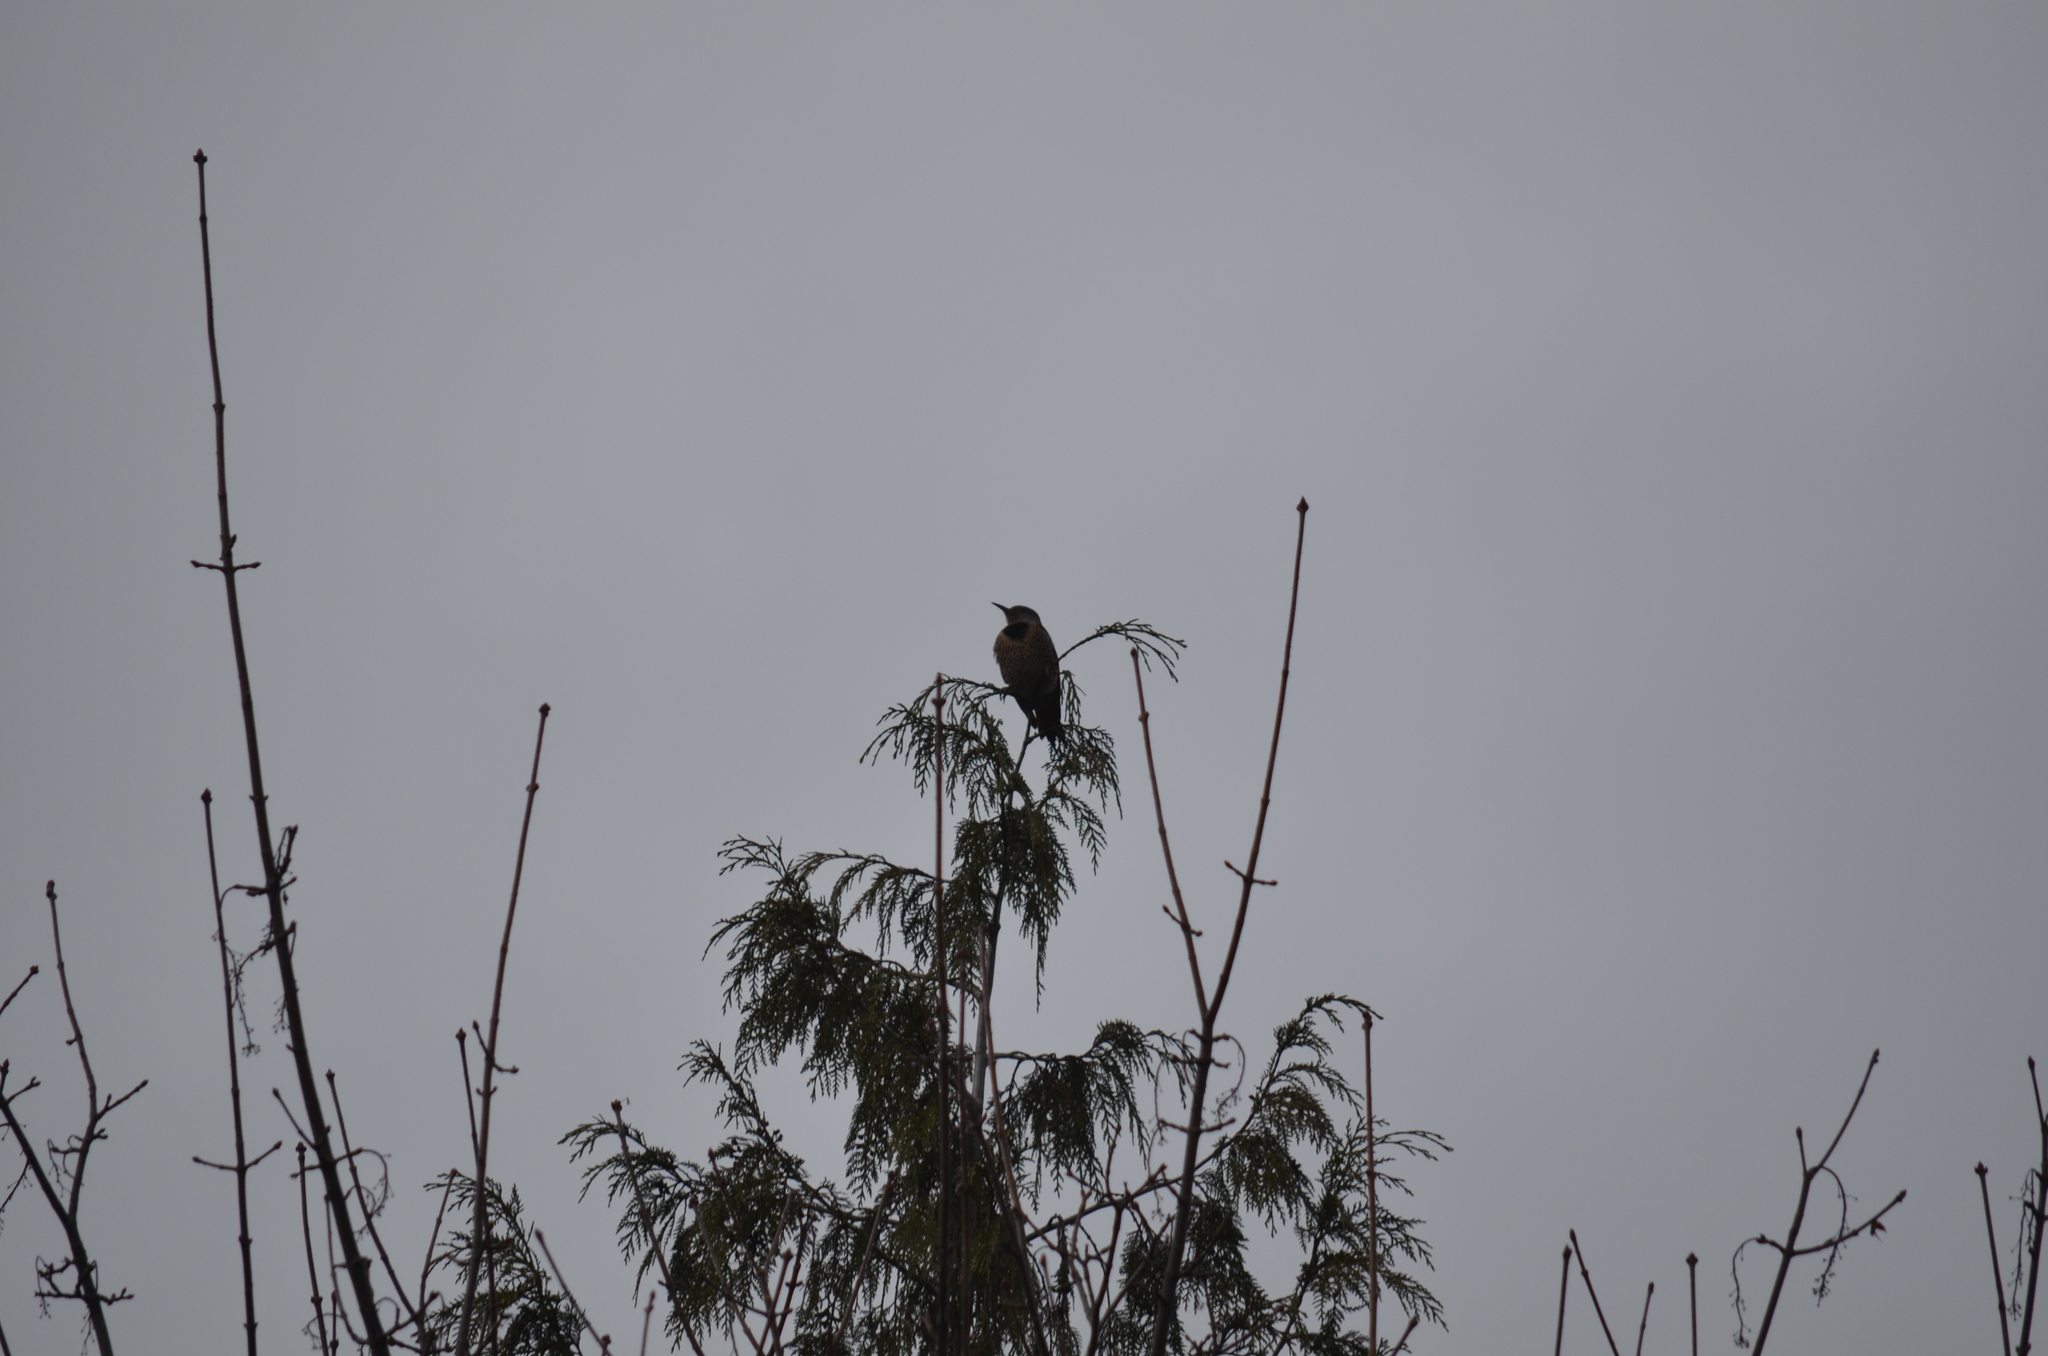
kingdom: Animalia
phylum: Chordata
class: Aves
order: Piciformes
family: Picidae
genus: Colaptes
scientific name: Colaptes auratus
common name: Northern flicker
